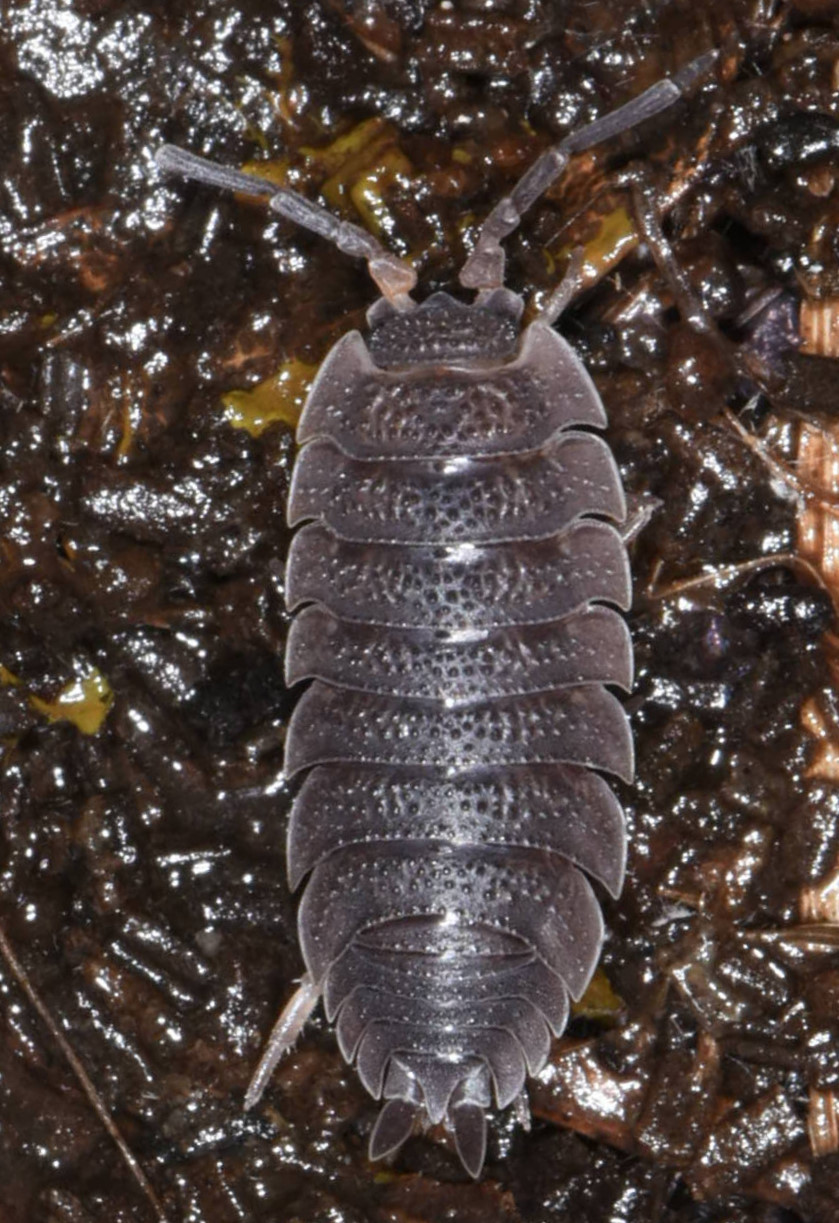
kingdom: Animalia
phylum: Arthropoda
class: Malacostraca
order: Isopoda
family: Porcellionidae
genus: Porcellio
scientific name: Porcellio scaber
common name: Common rough woodlouse
